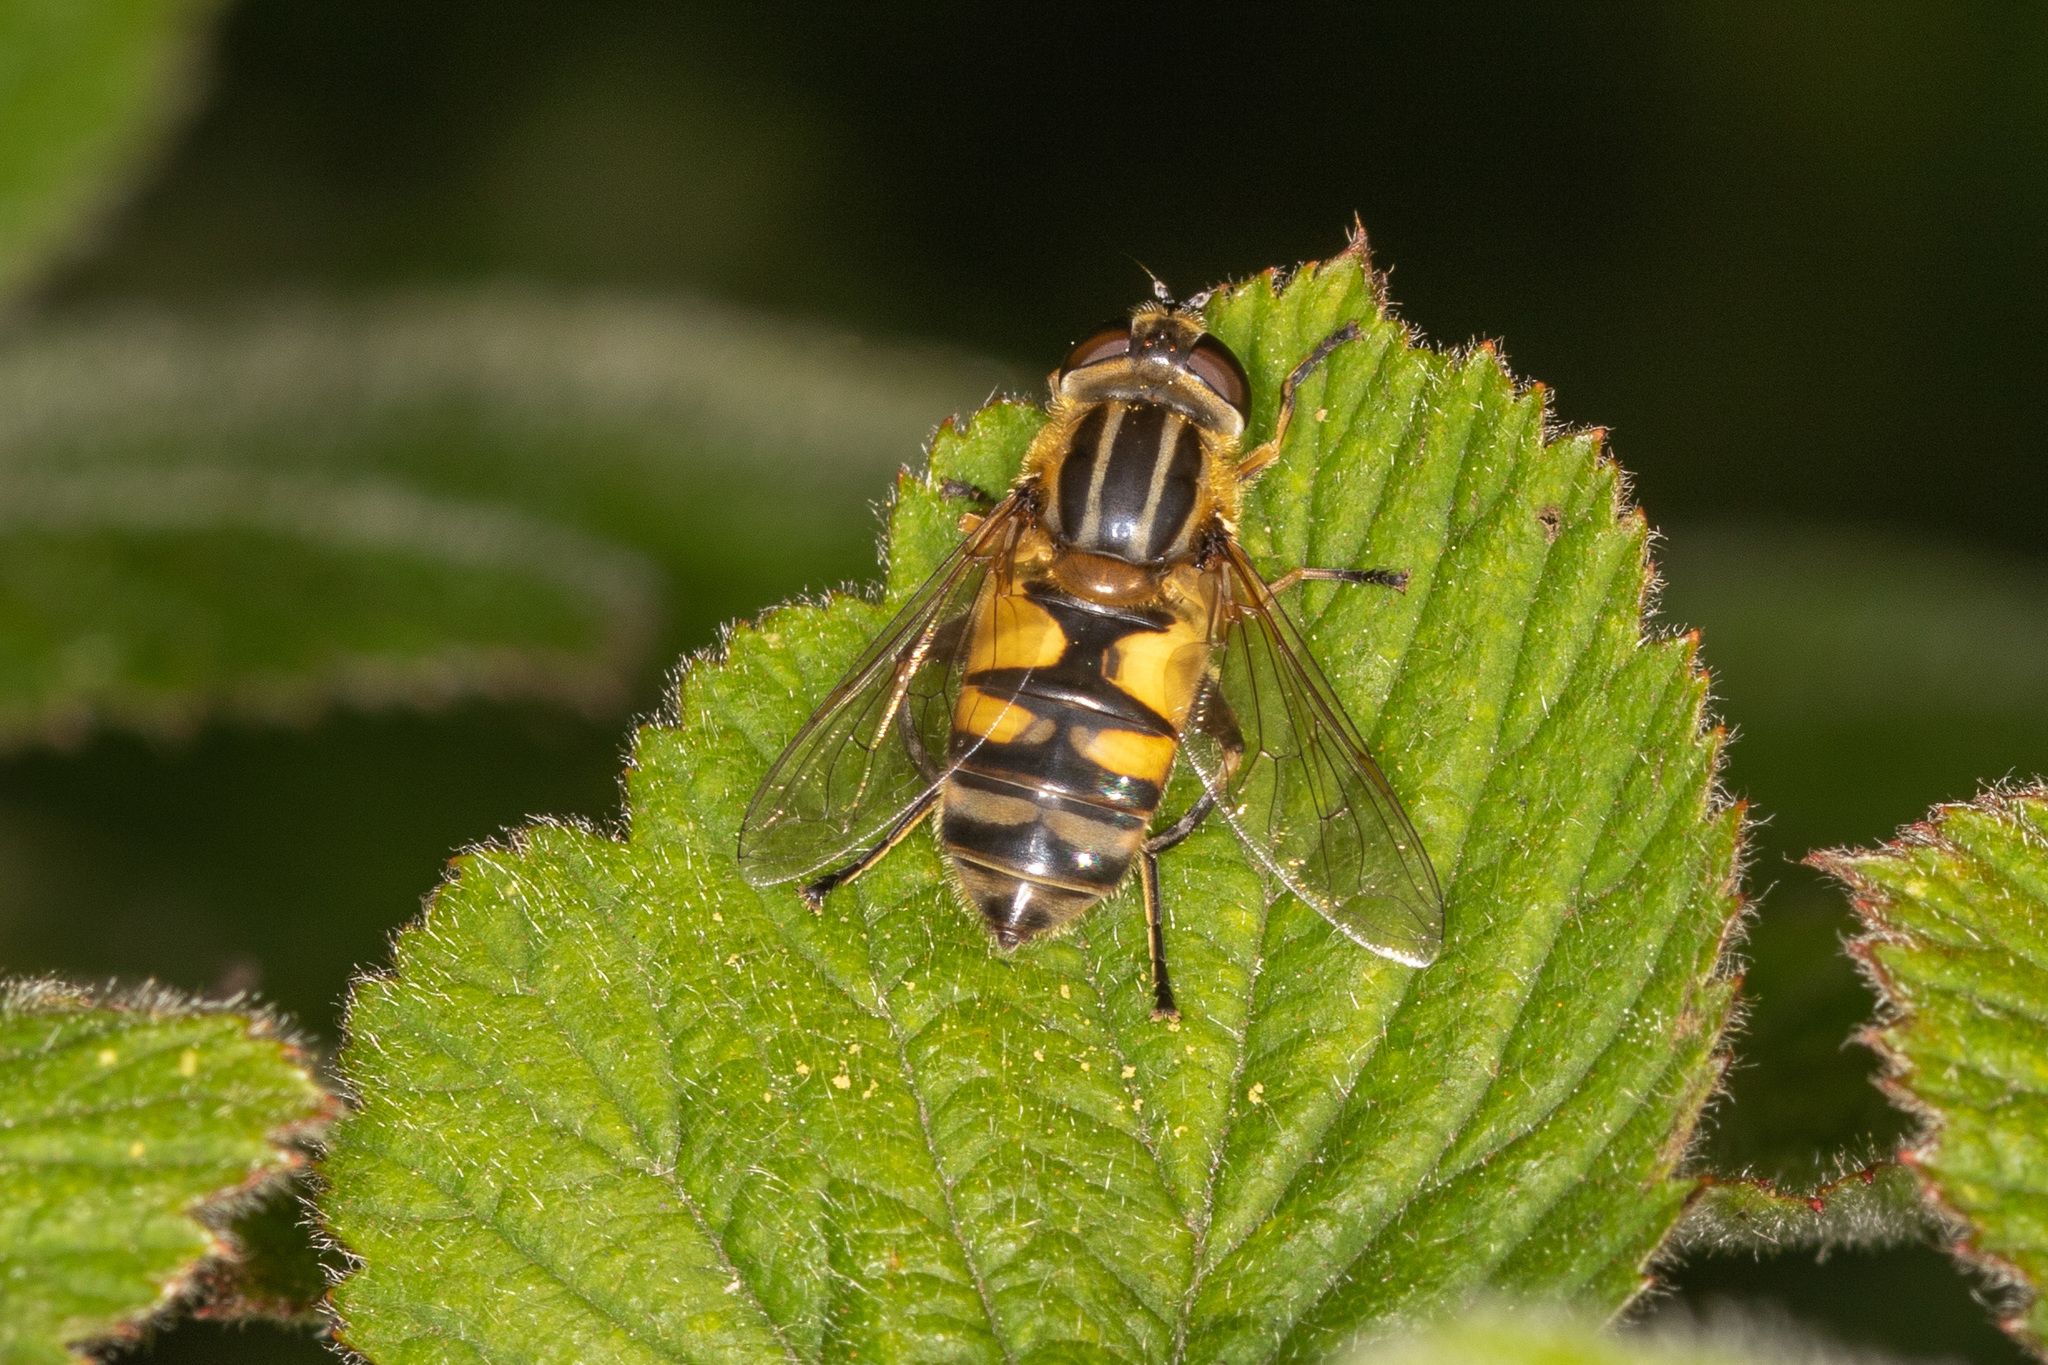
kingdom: Animalia
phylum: Arthropoda
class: Insecta
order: Diptera
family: Syrphidae
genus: Helophilus
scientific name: Helophilus hybridus
